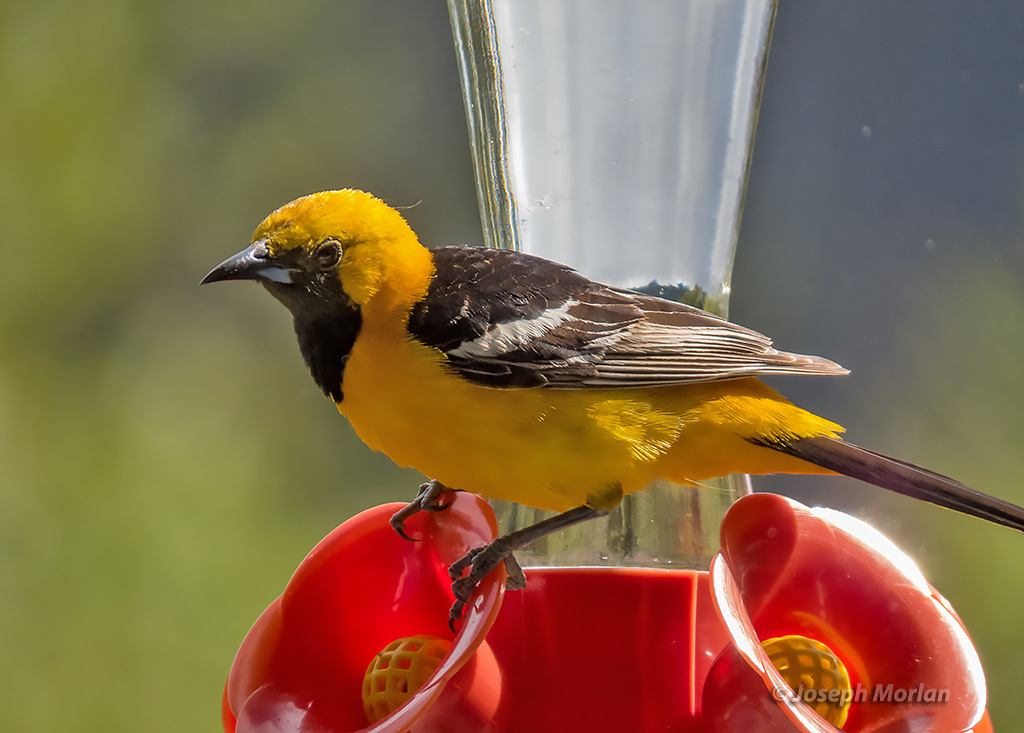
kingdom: Animalia
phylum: Chordata
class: Aves
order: Passeriformes
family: Icteridae
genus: Icterus
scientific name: Icterus cucullatus
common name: Hooded oriole
